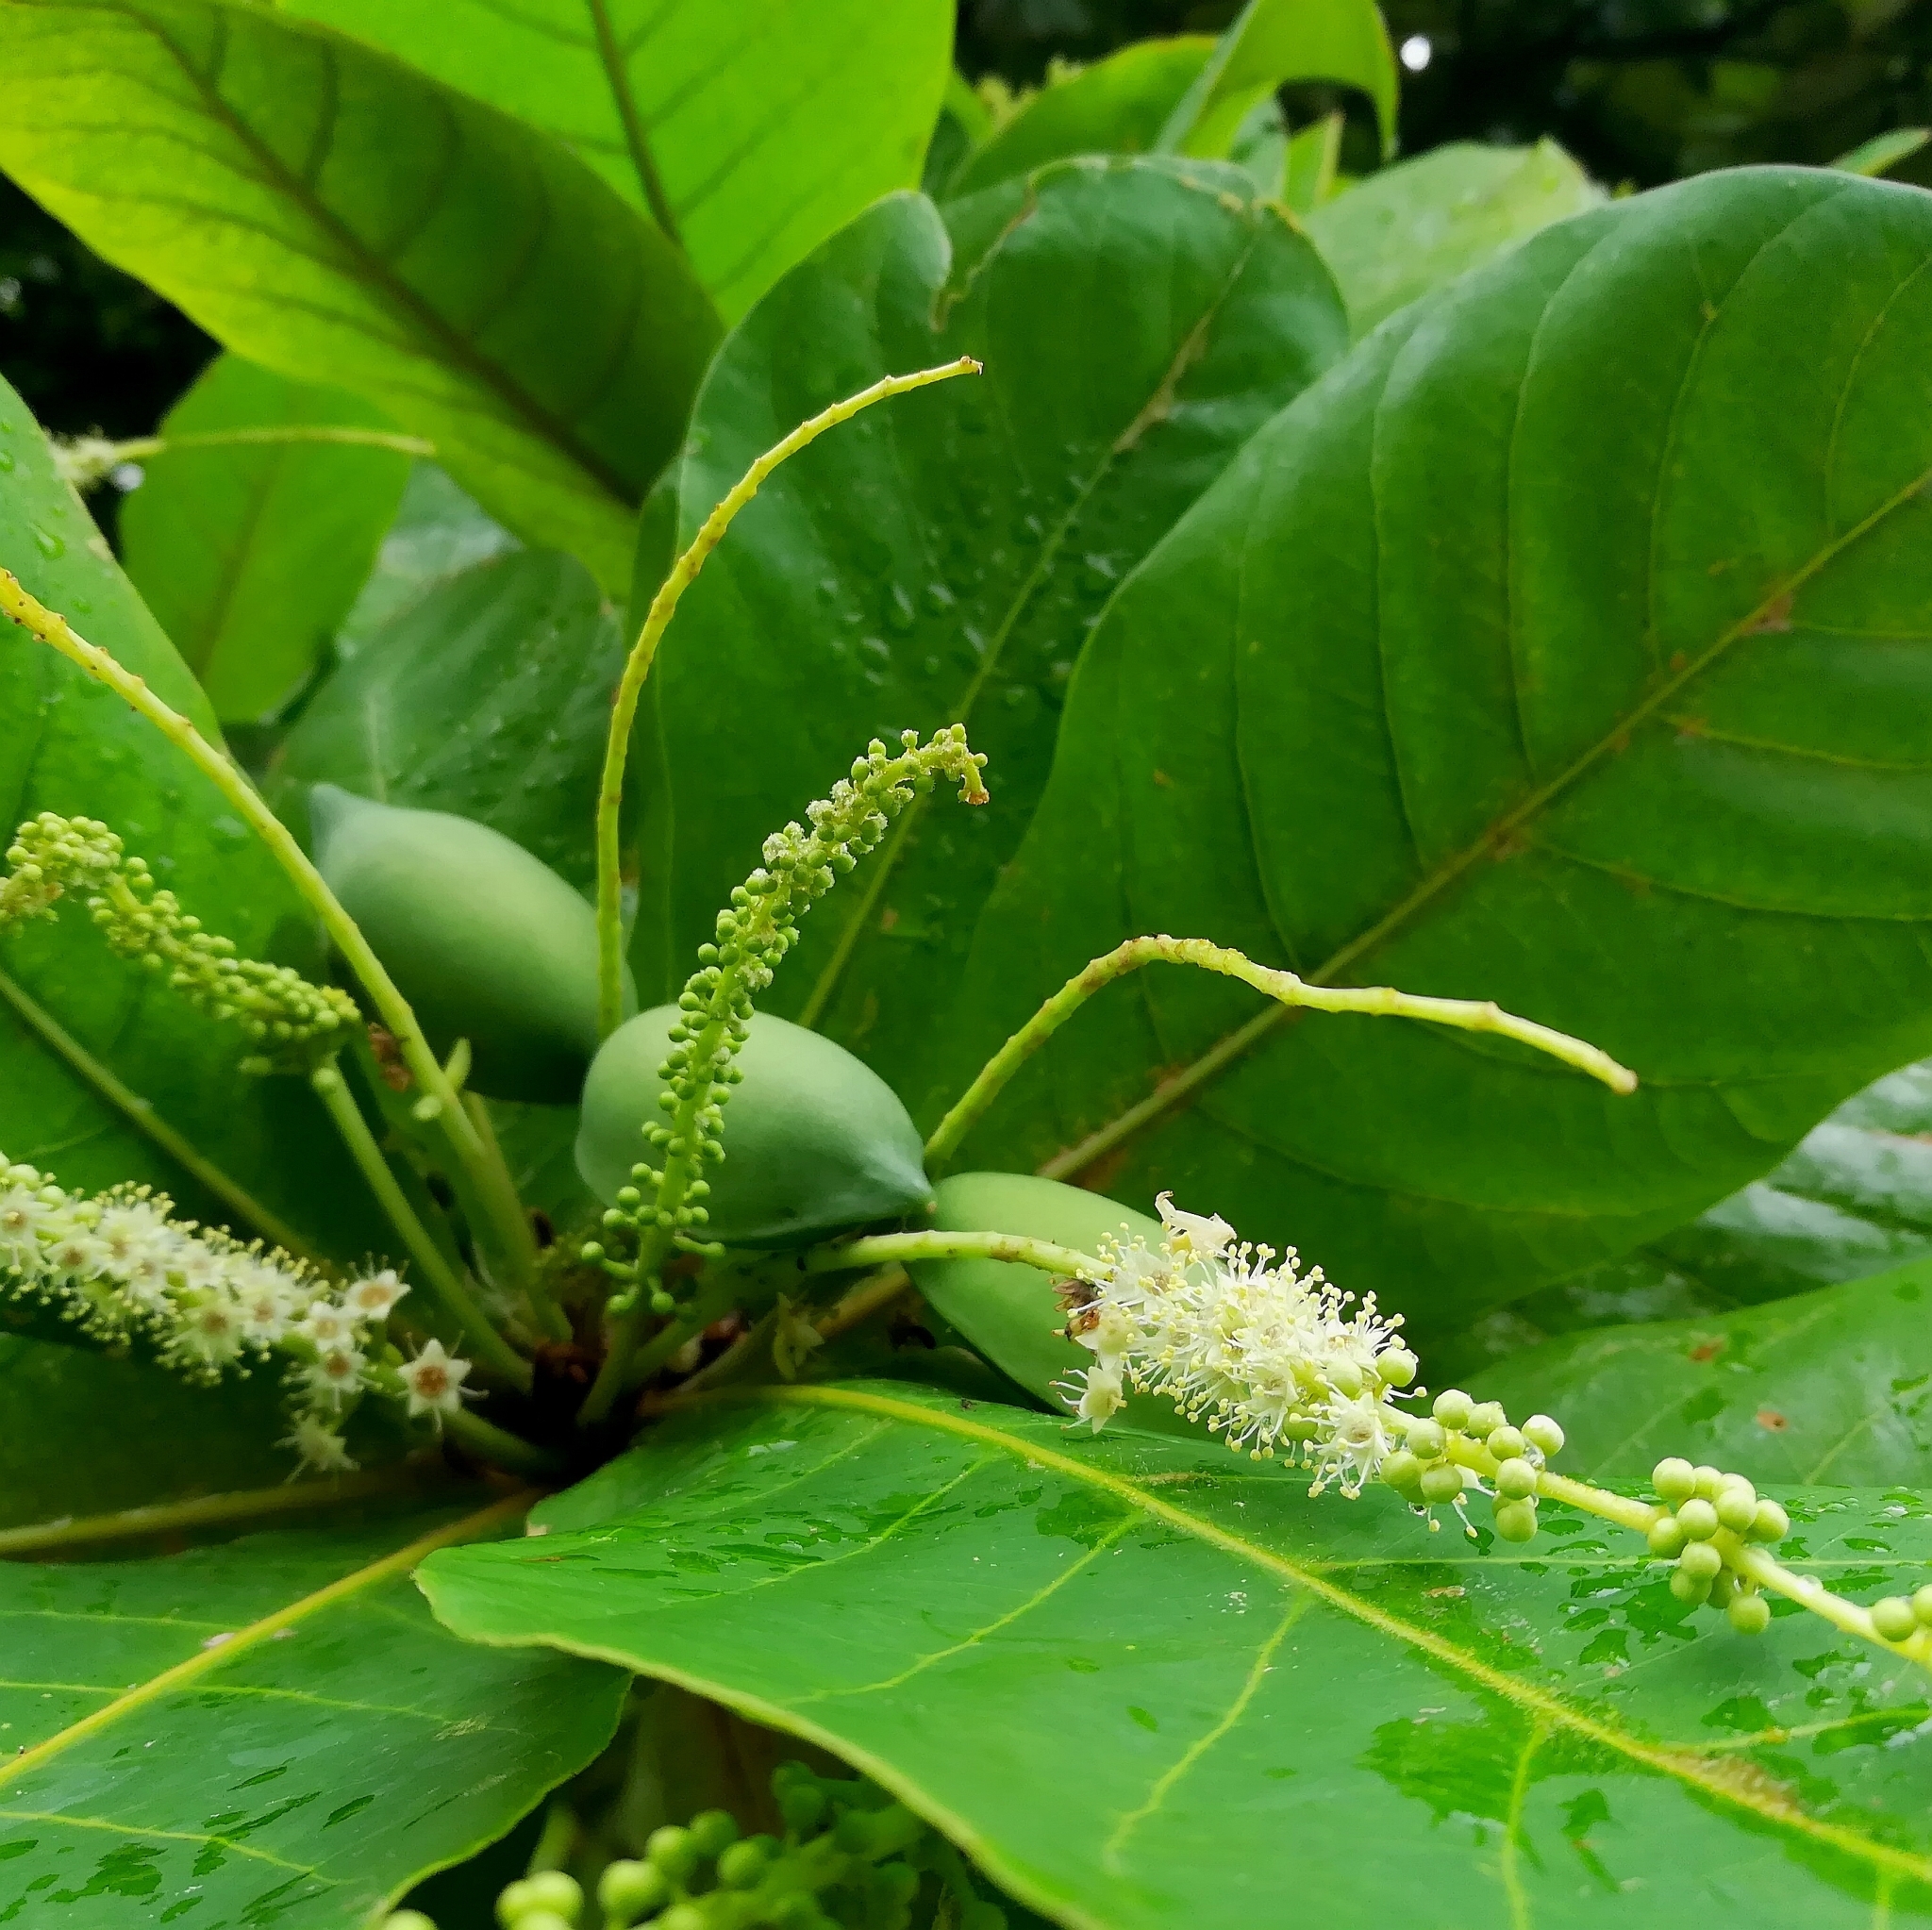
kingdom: Plantae
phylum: Tracheophyta
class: Magnoliopsida
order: Myrtales
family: Combretaceae
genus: Terminalia
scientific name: Terminalia catappa
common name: Tropical almond
